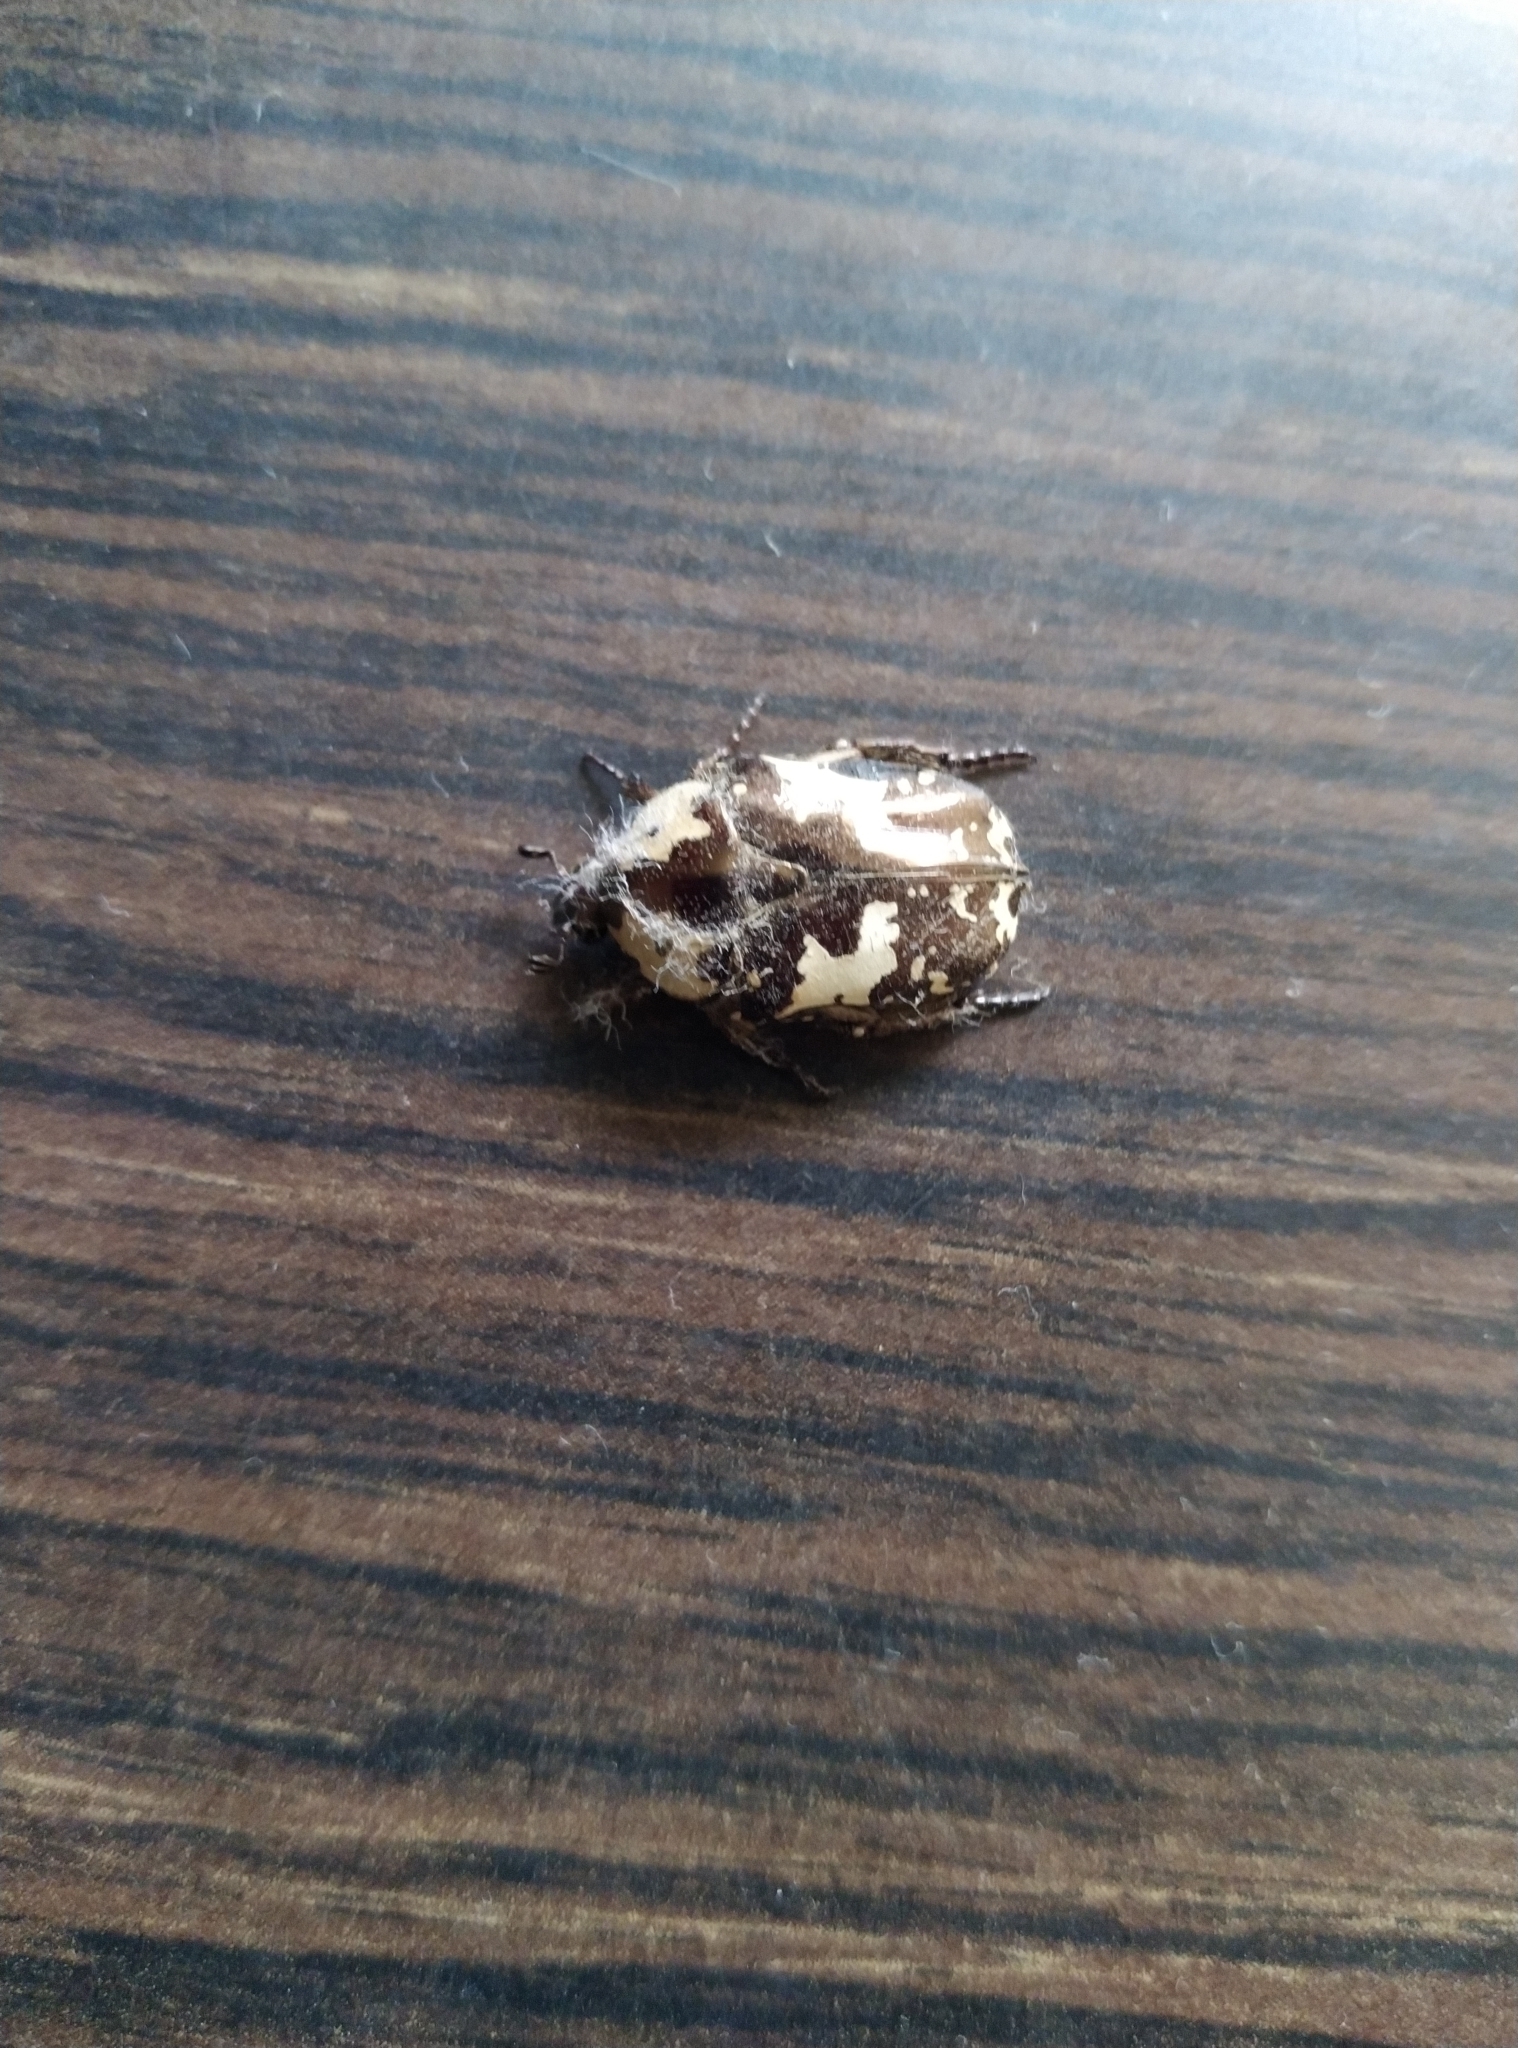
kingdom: Animalia
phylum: Arthropoda
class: Insecta
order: Coleoptera
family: Scarabaeidae
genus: Protaetia
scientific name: Protaetia aurichalcea
